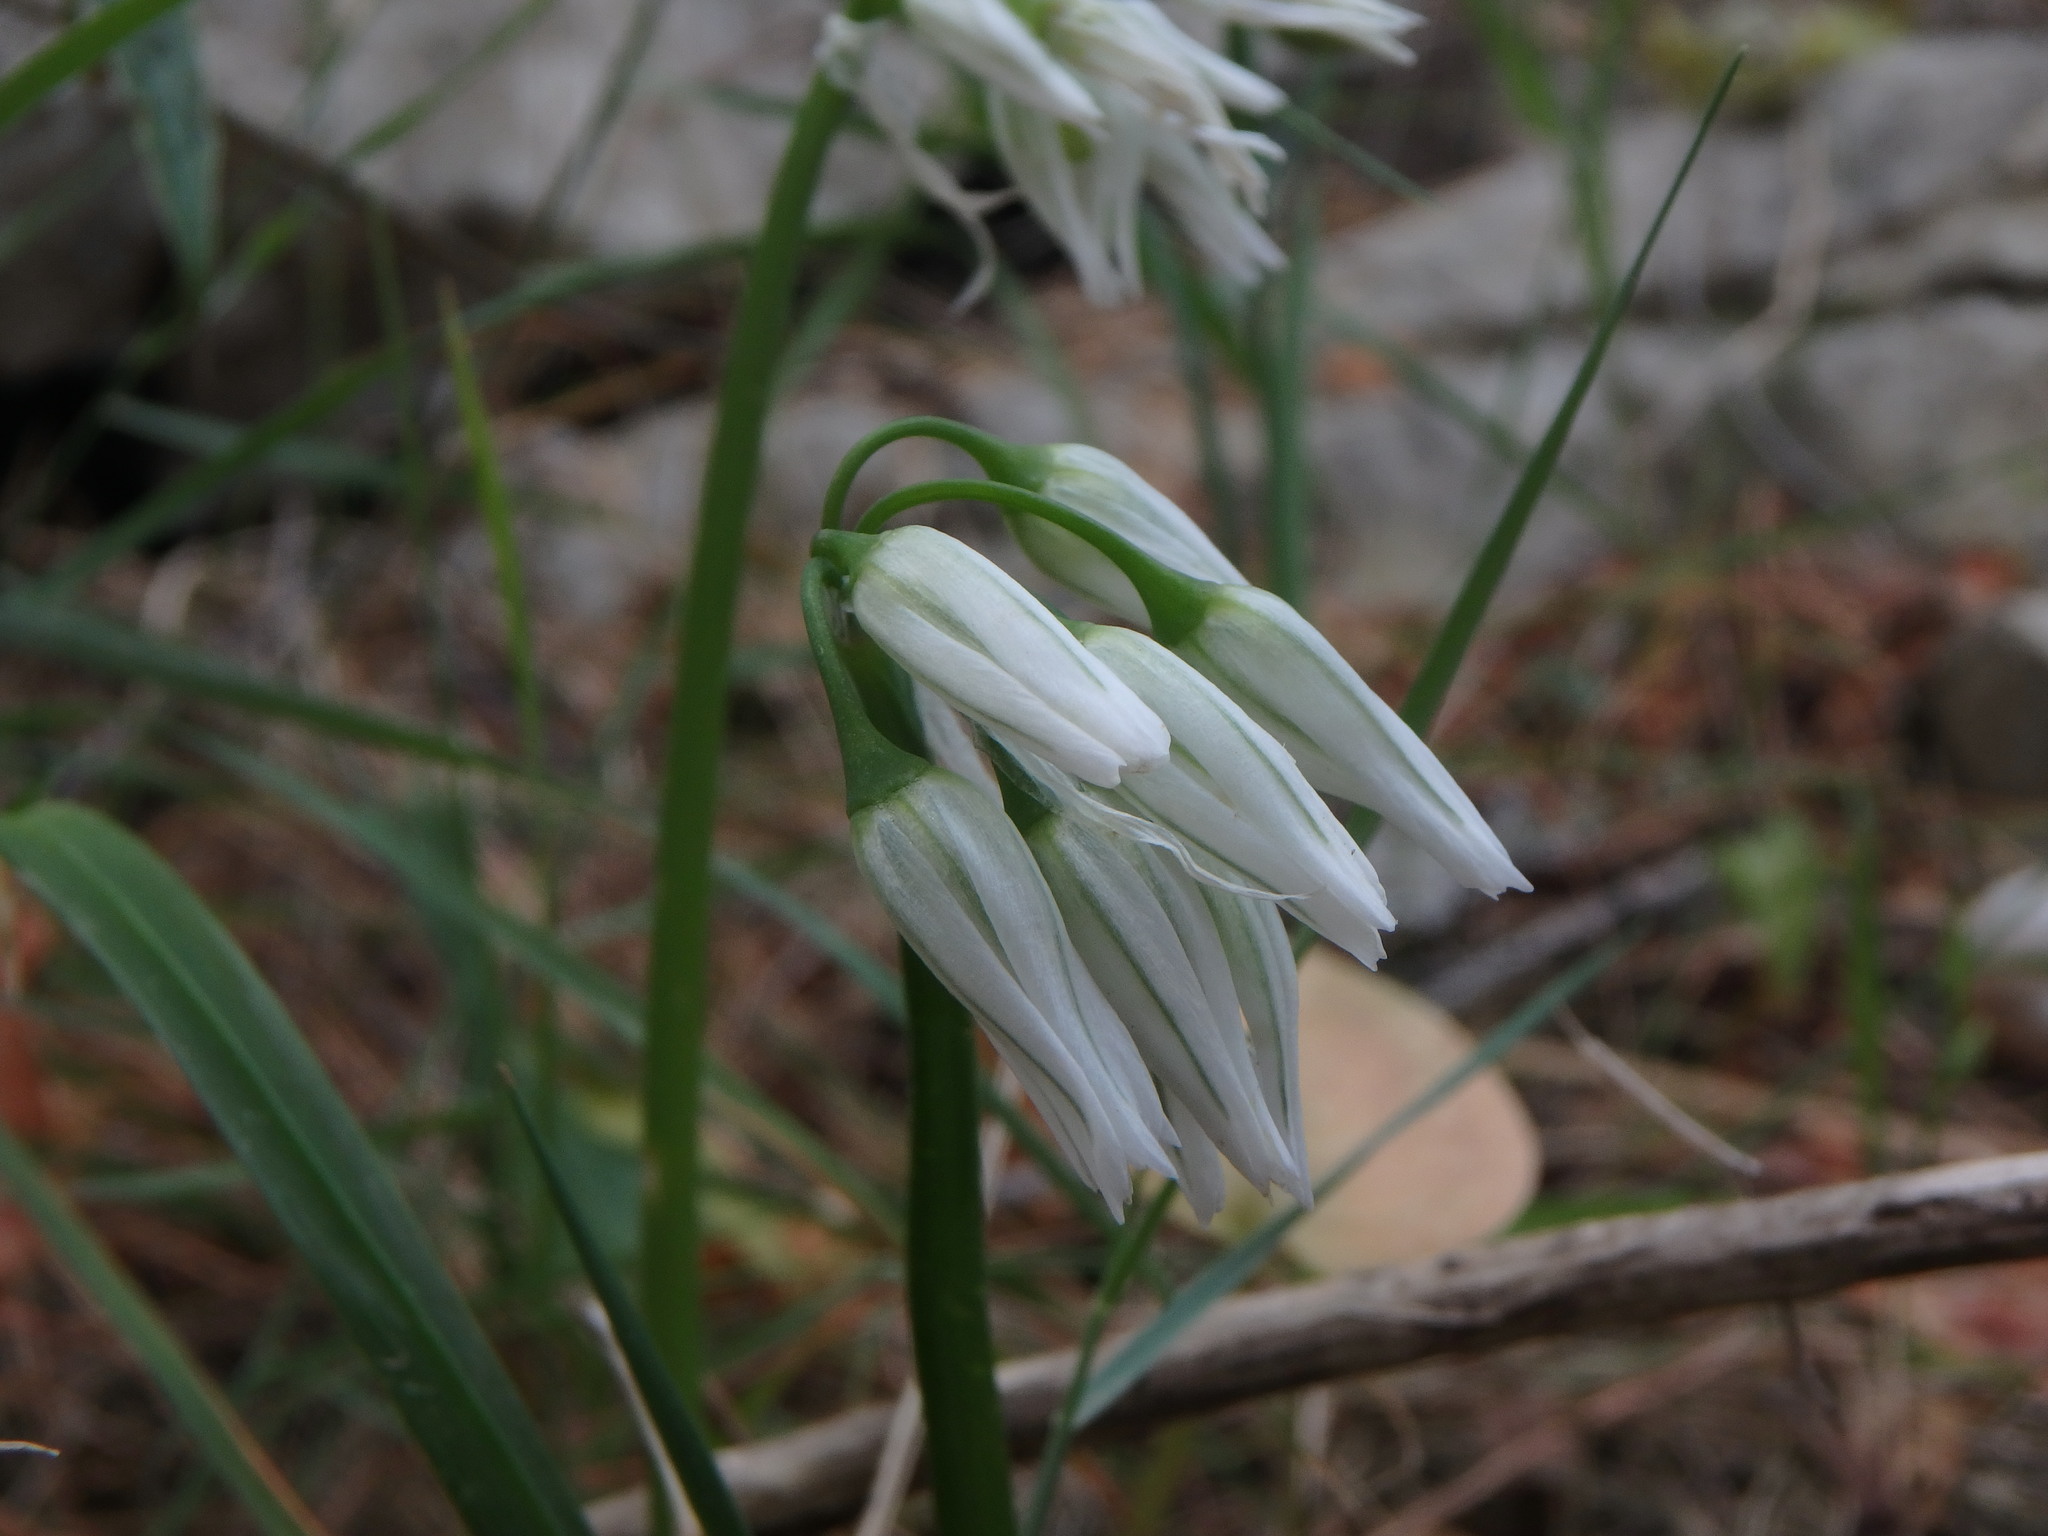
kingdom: Plantae
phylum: Tracheophyta
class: Liliopsida
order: Asparagales
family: Amaryllidaceae
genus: Allium
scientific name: Allium triquetrum
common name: Three-cornered garlic
